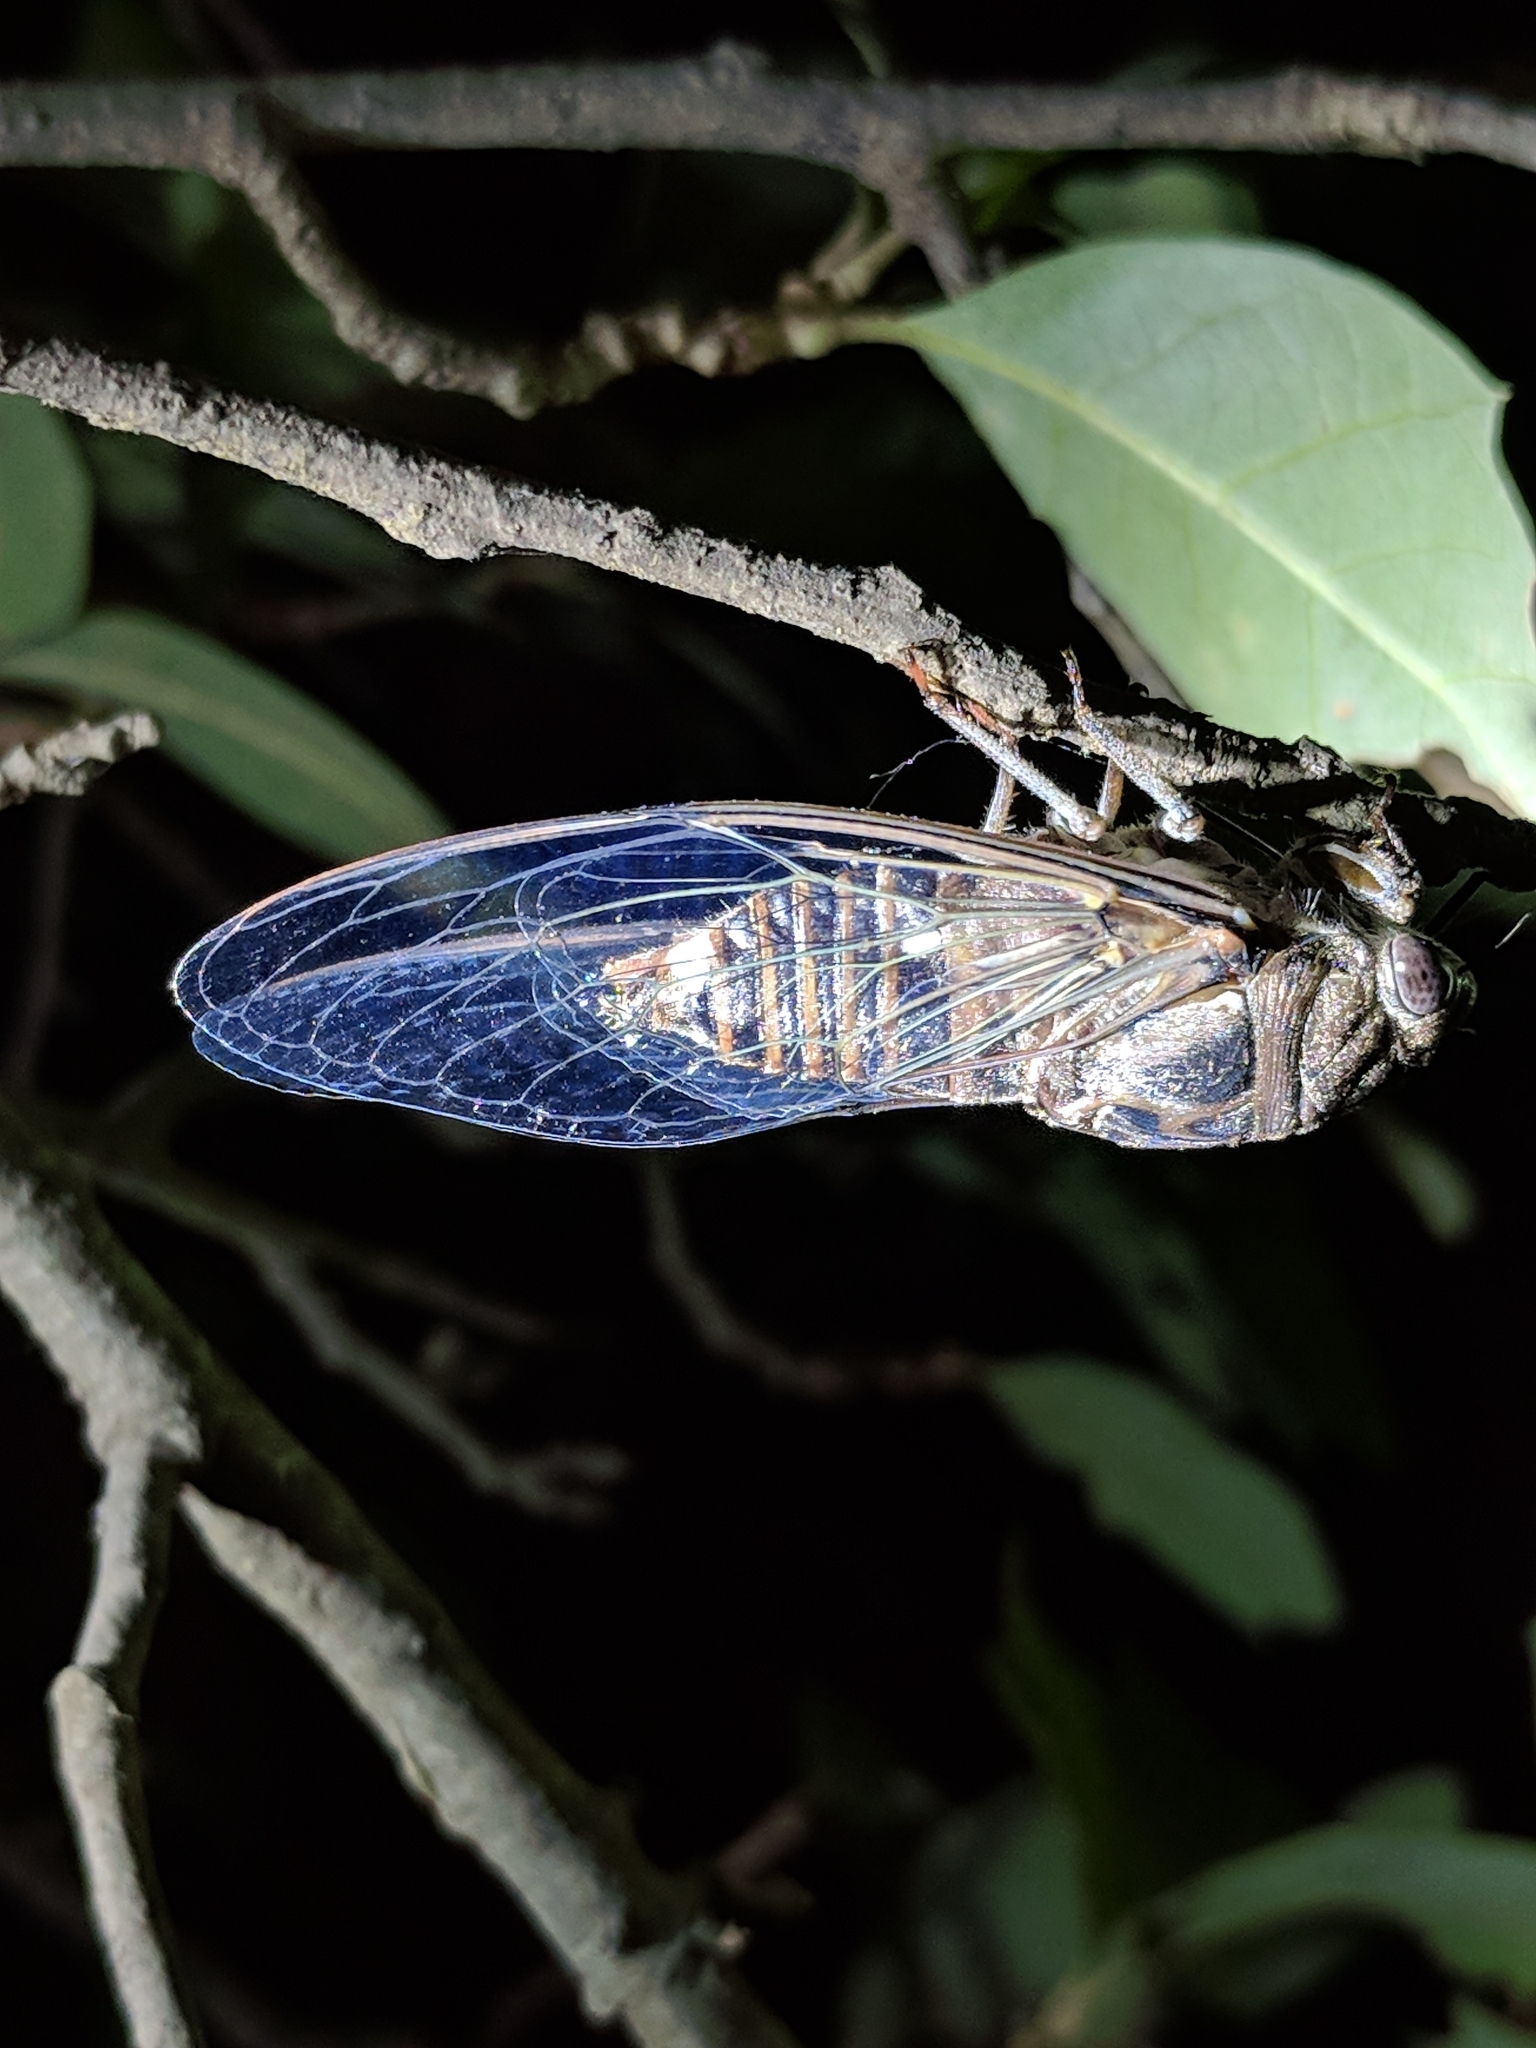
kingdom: Animalia
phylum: Arthropoda
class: Insecta
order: Hemiptera
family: Cicadidae
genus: Hadoa
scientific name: Hadoa texana
